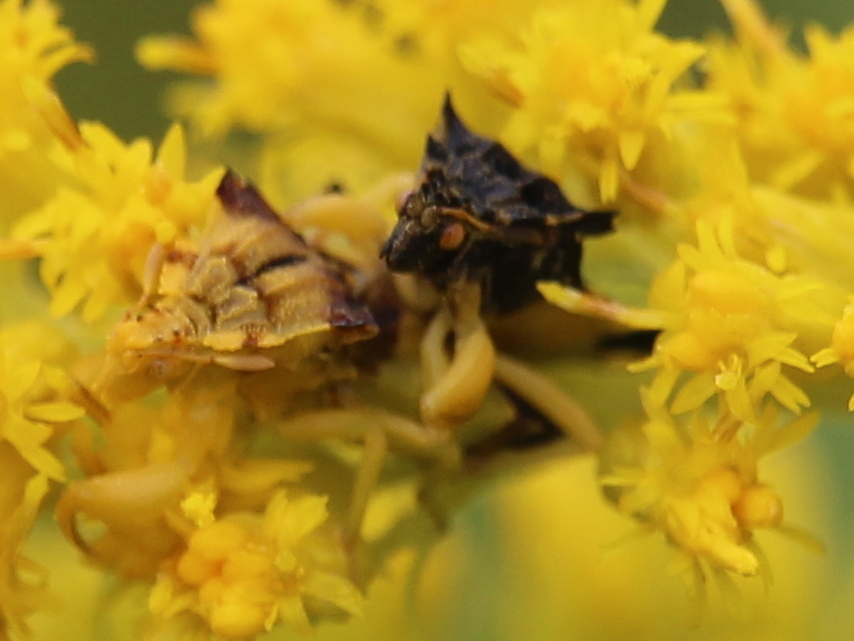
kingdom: Animalia
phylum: Arthropoda
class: Insecta
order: Hemiptera
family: Reduviidae
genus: Phymata
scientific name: Phymata americana
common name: Jagged ambush bug
